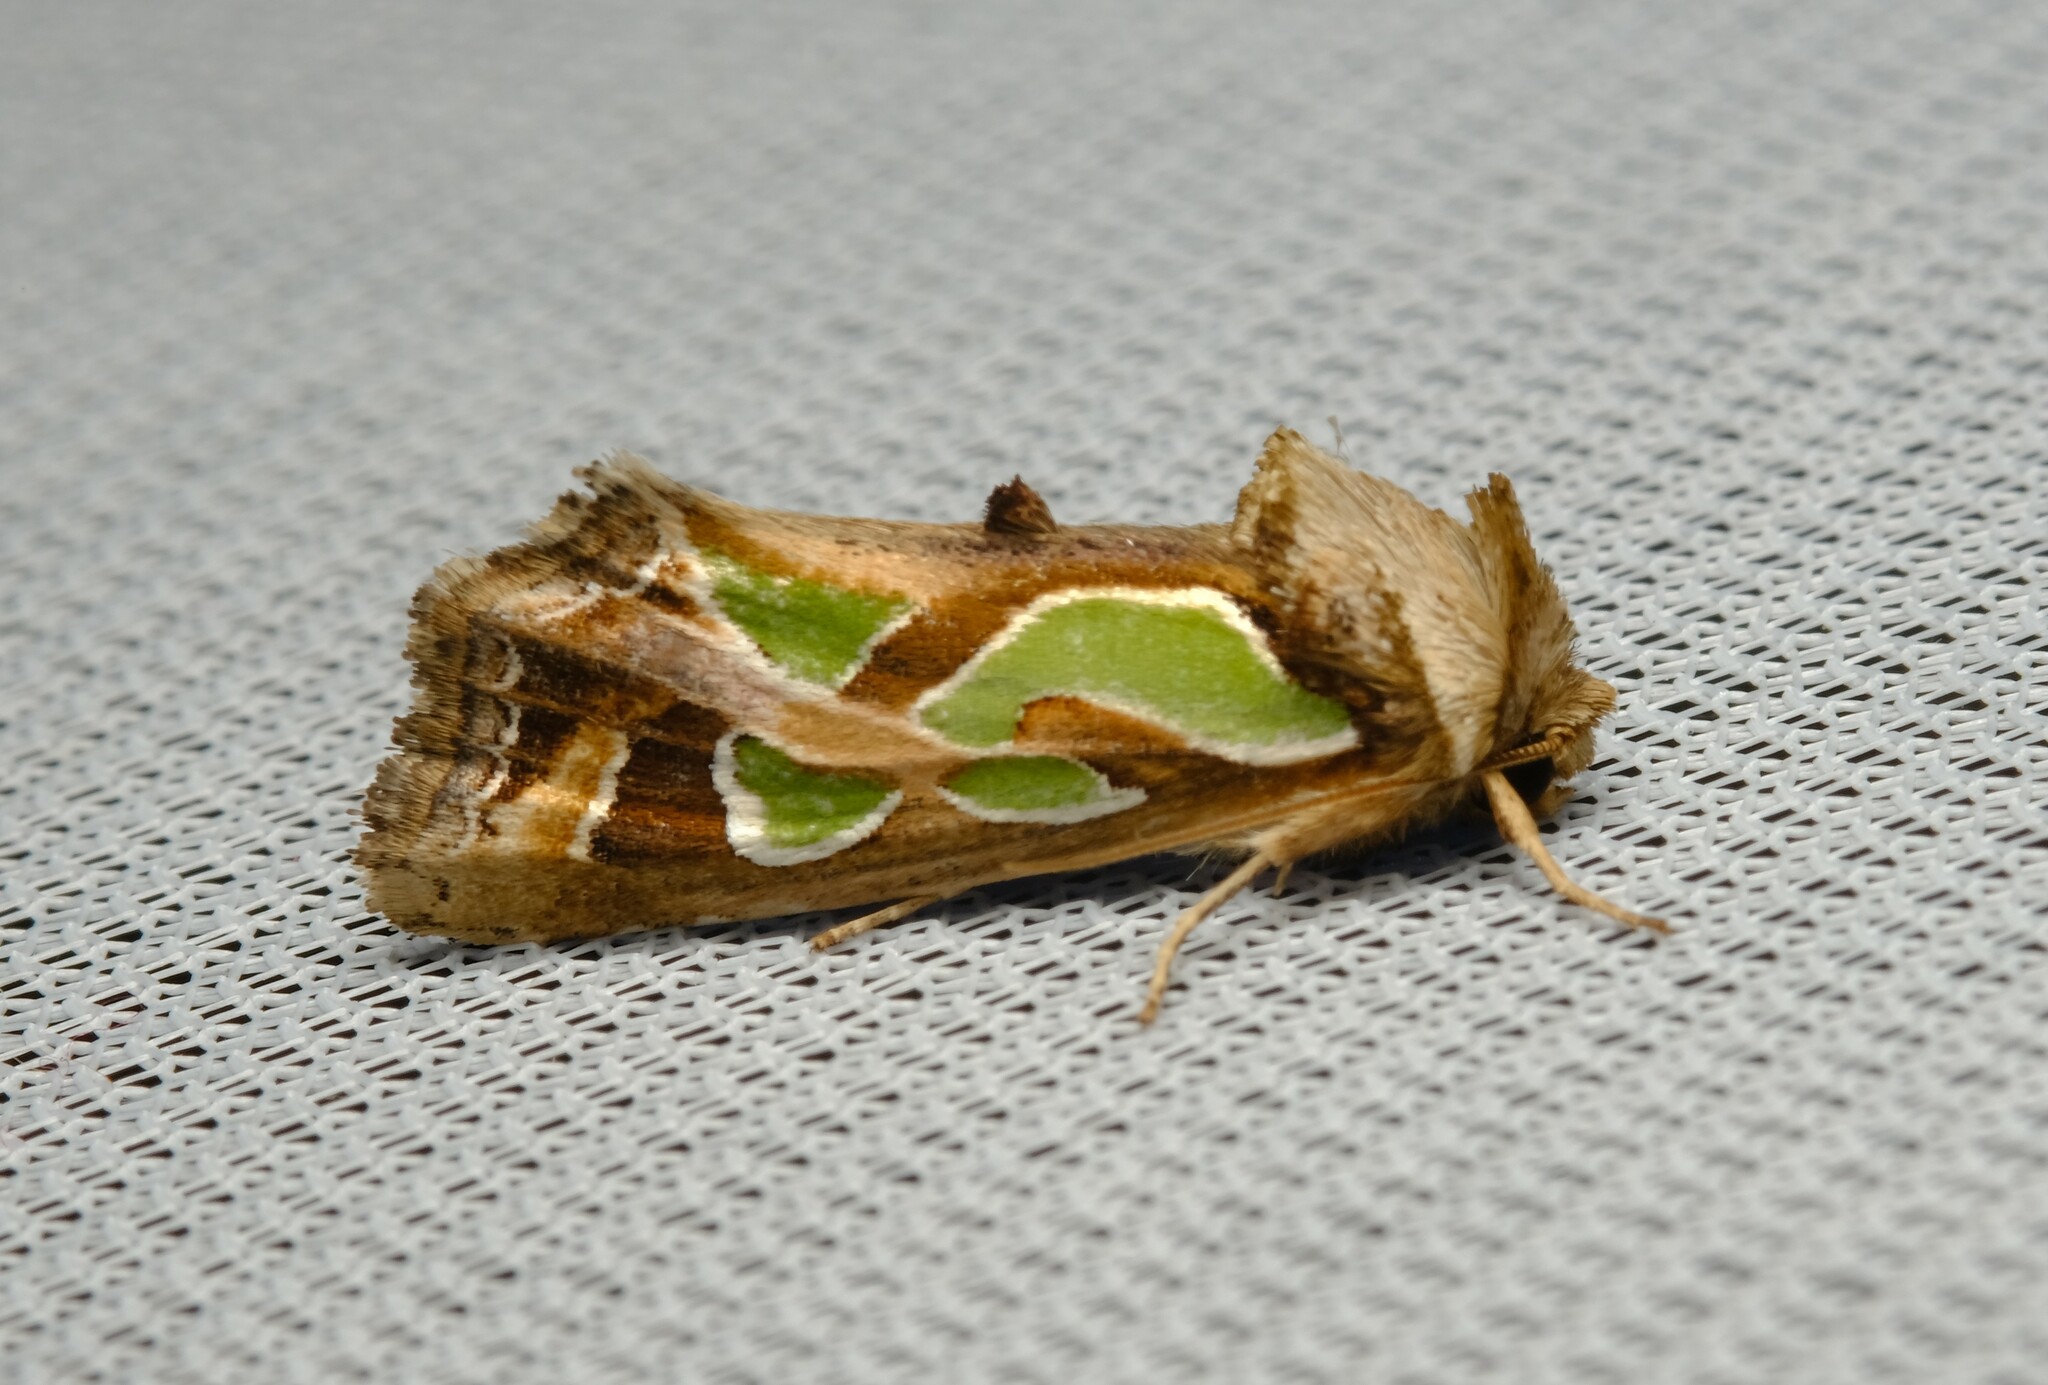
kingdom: Animalia
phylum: Arthropoda
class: Insecta
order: Lepidoptera
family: Noctuidae
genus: Cosmodes
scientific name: Cosmodes elegans
